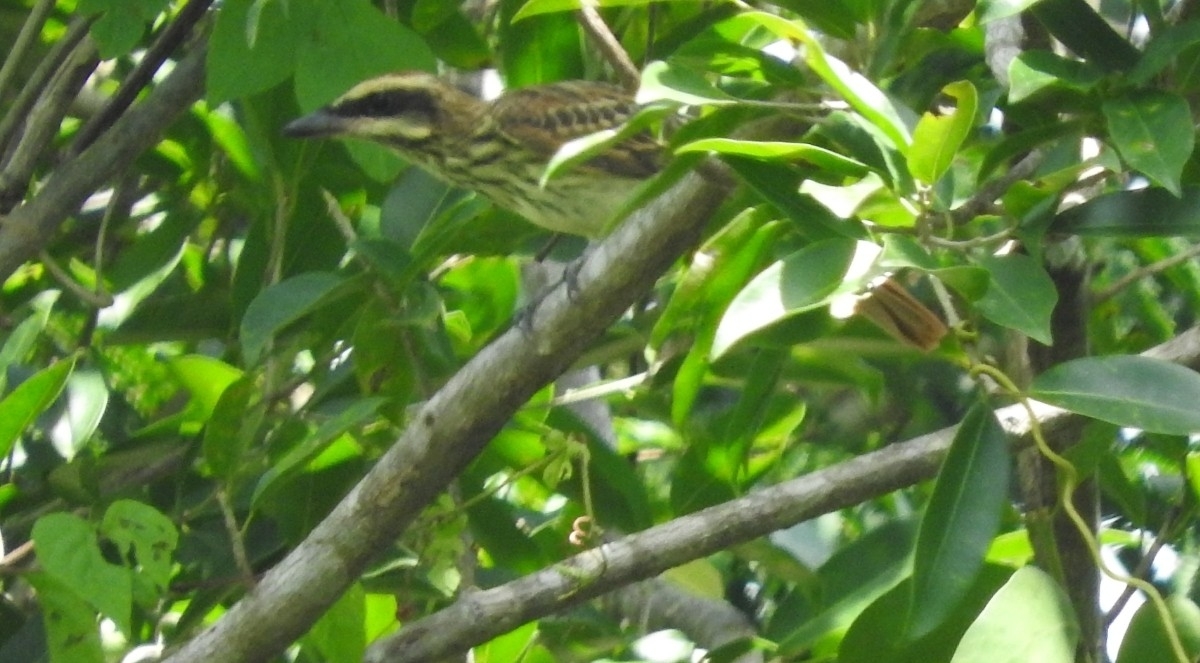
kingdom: Animalia
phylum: Chordata
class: Aves
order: Passeriformes
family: Tyrannidae
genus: Myiodynastes
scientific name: Myiodynastes maculatus
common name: Streaked flycatcher
